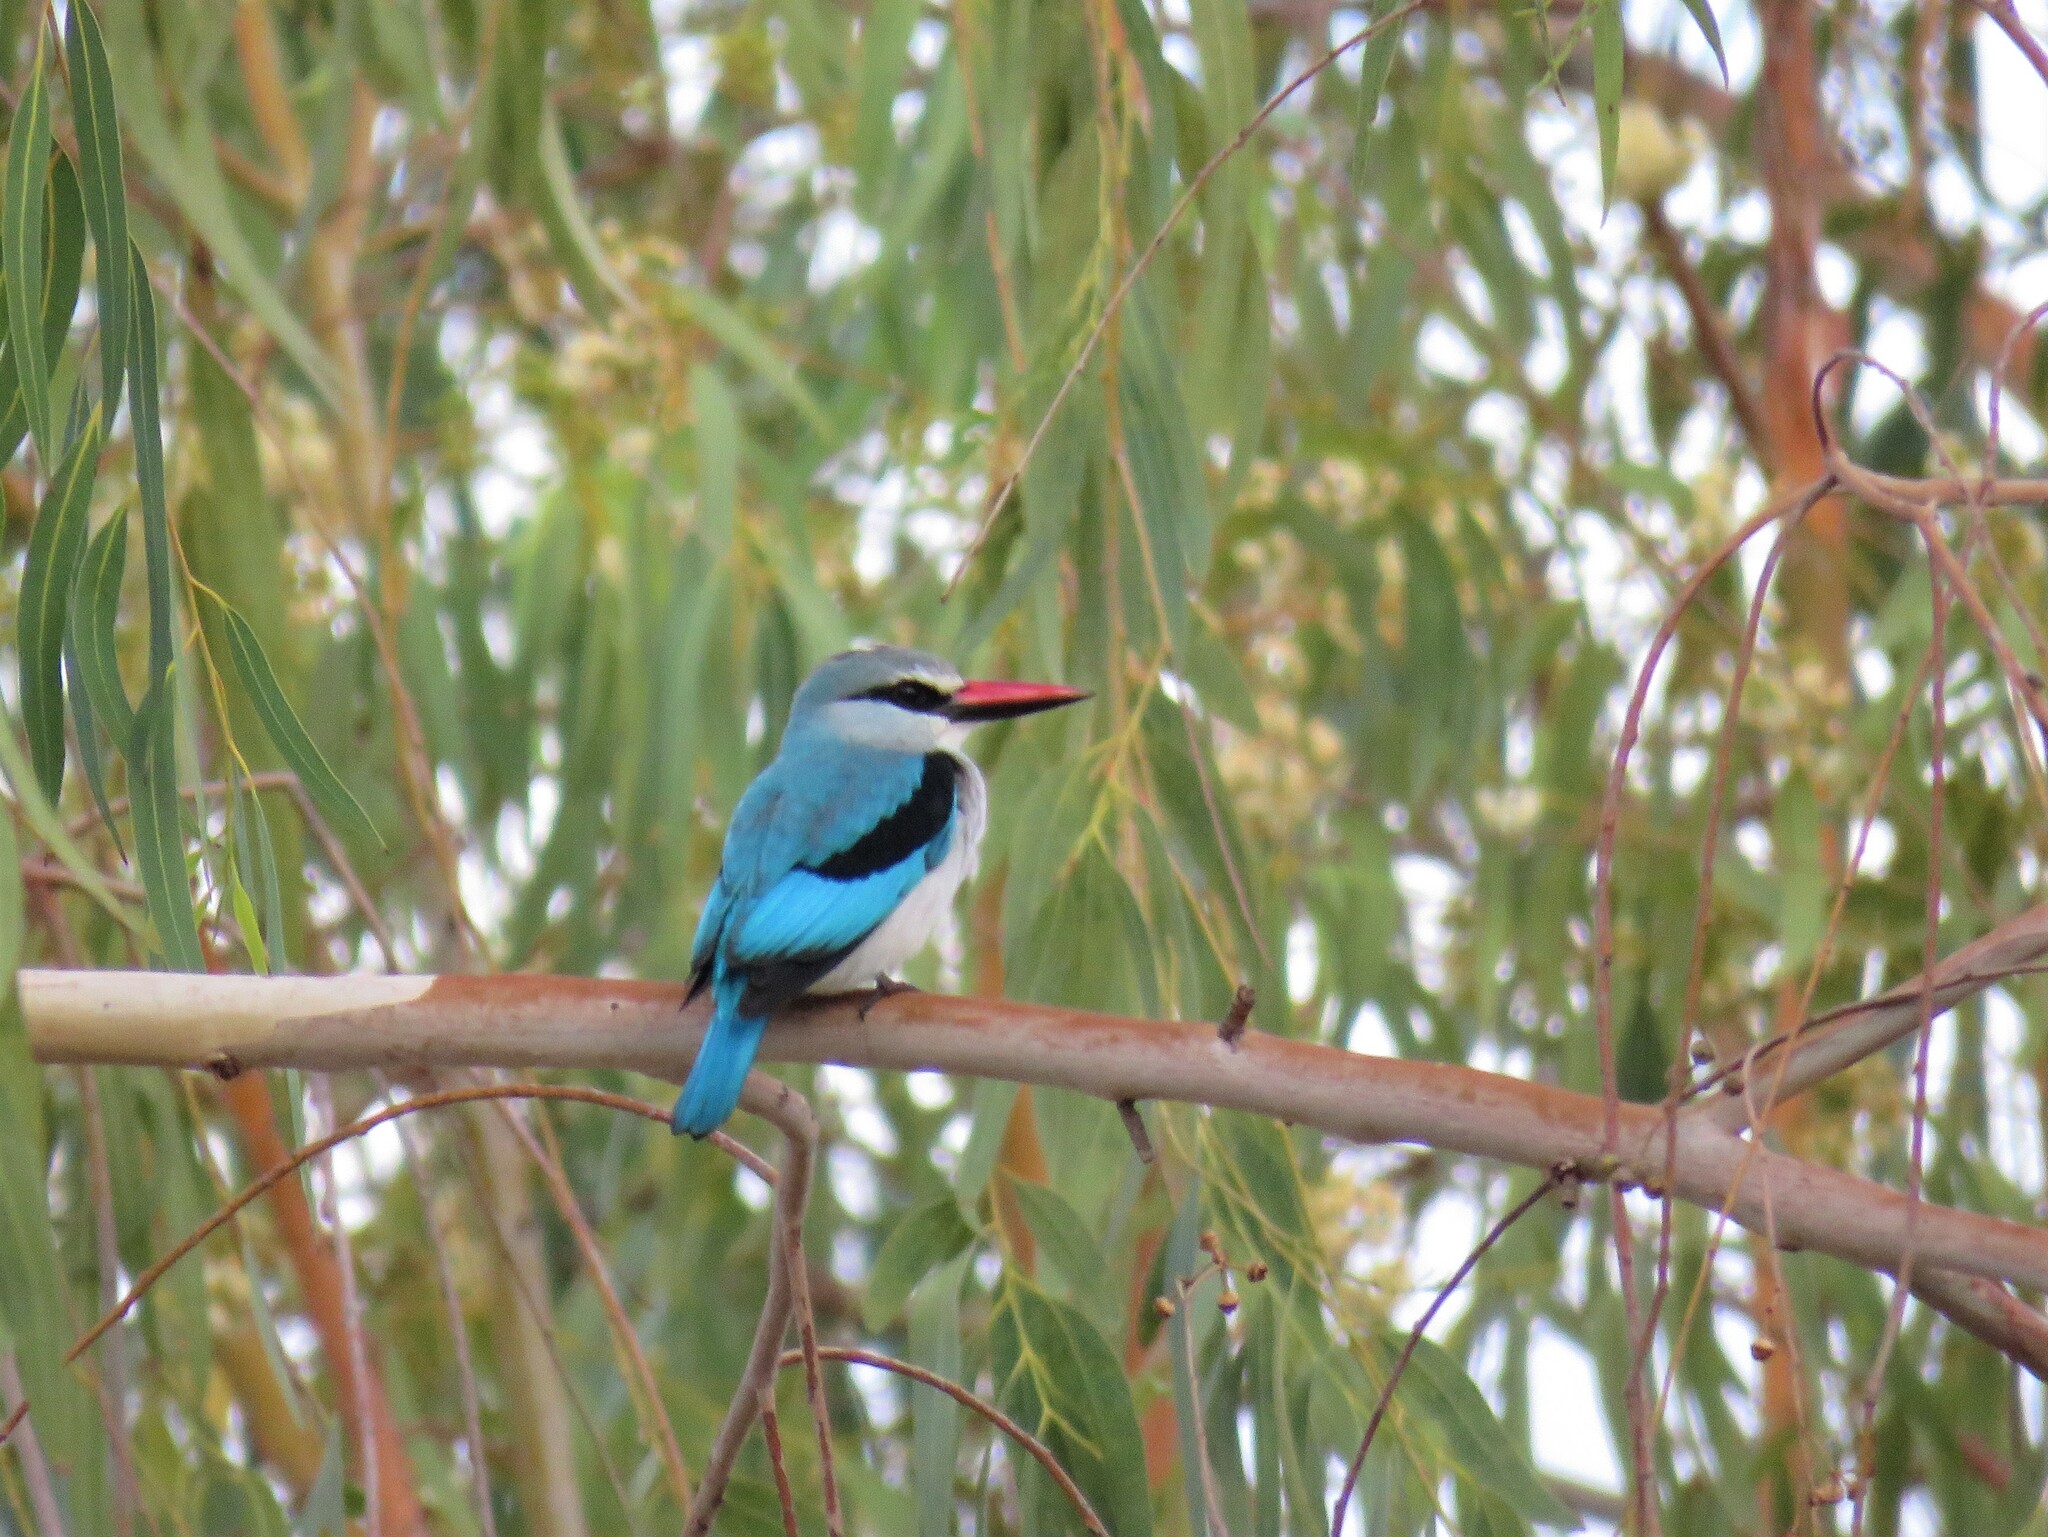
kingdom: Animalia
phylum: Chordata
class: Aves
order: Coraciiformes
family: Alcedinidae
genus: Halcyon
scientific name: Halcyon senegalensis
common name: Woodland kingfisher
